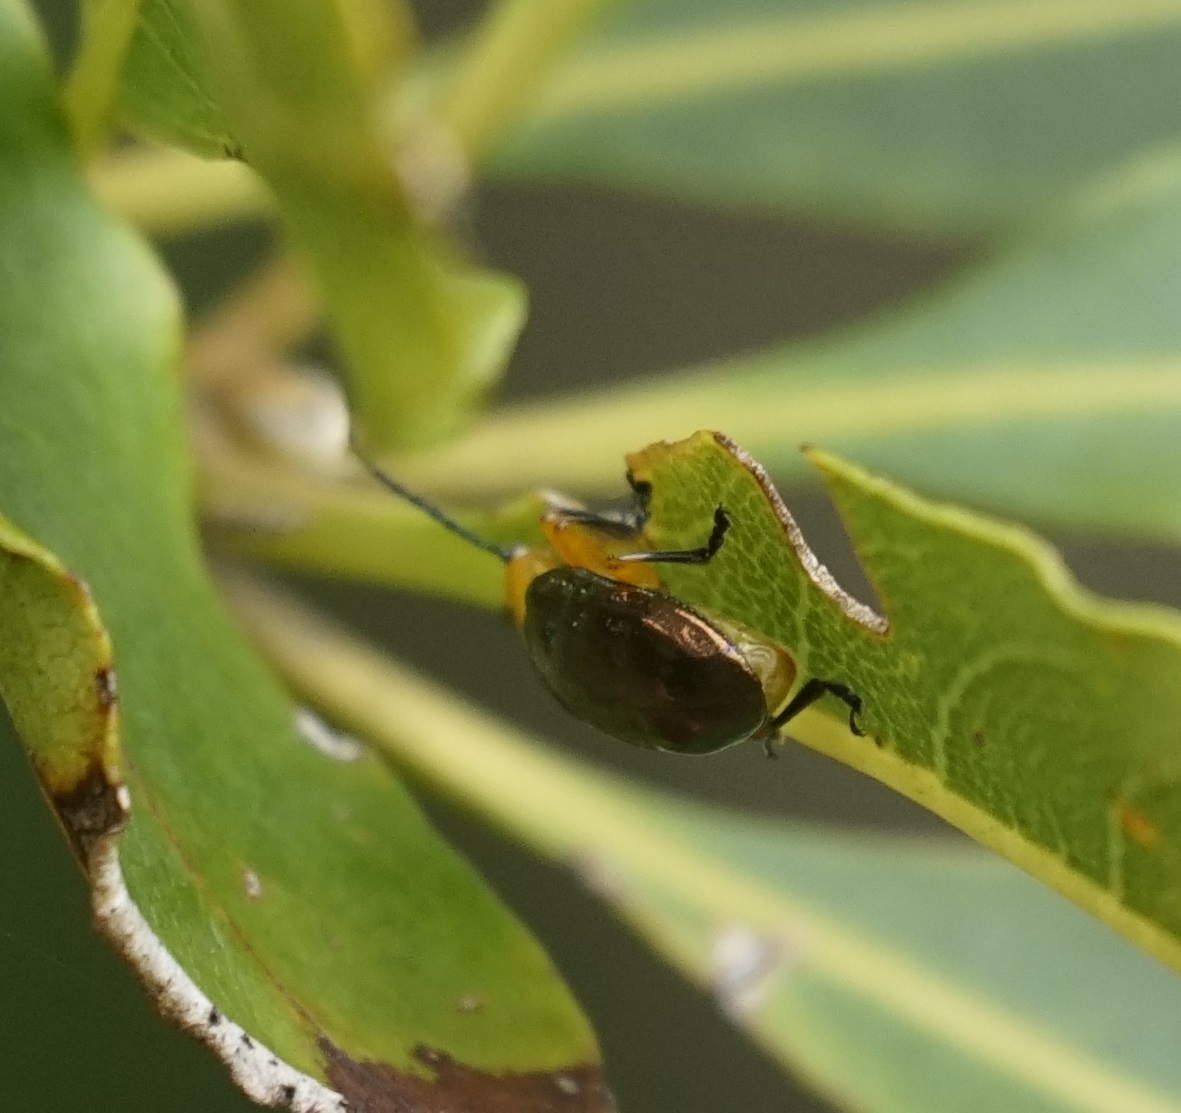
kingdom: Animalia
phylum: Arthropoda
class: Insecta
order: Coleoptera
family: Chrysomelidae
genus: Lamprolina
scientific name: Lamprolina
